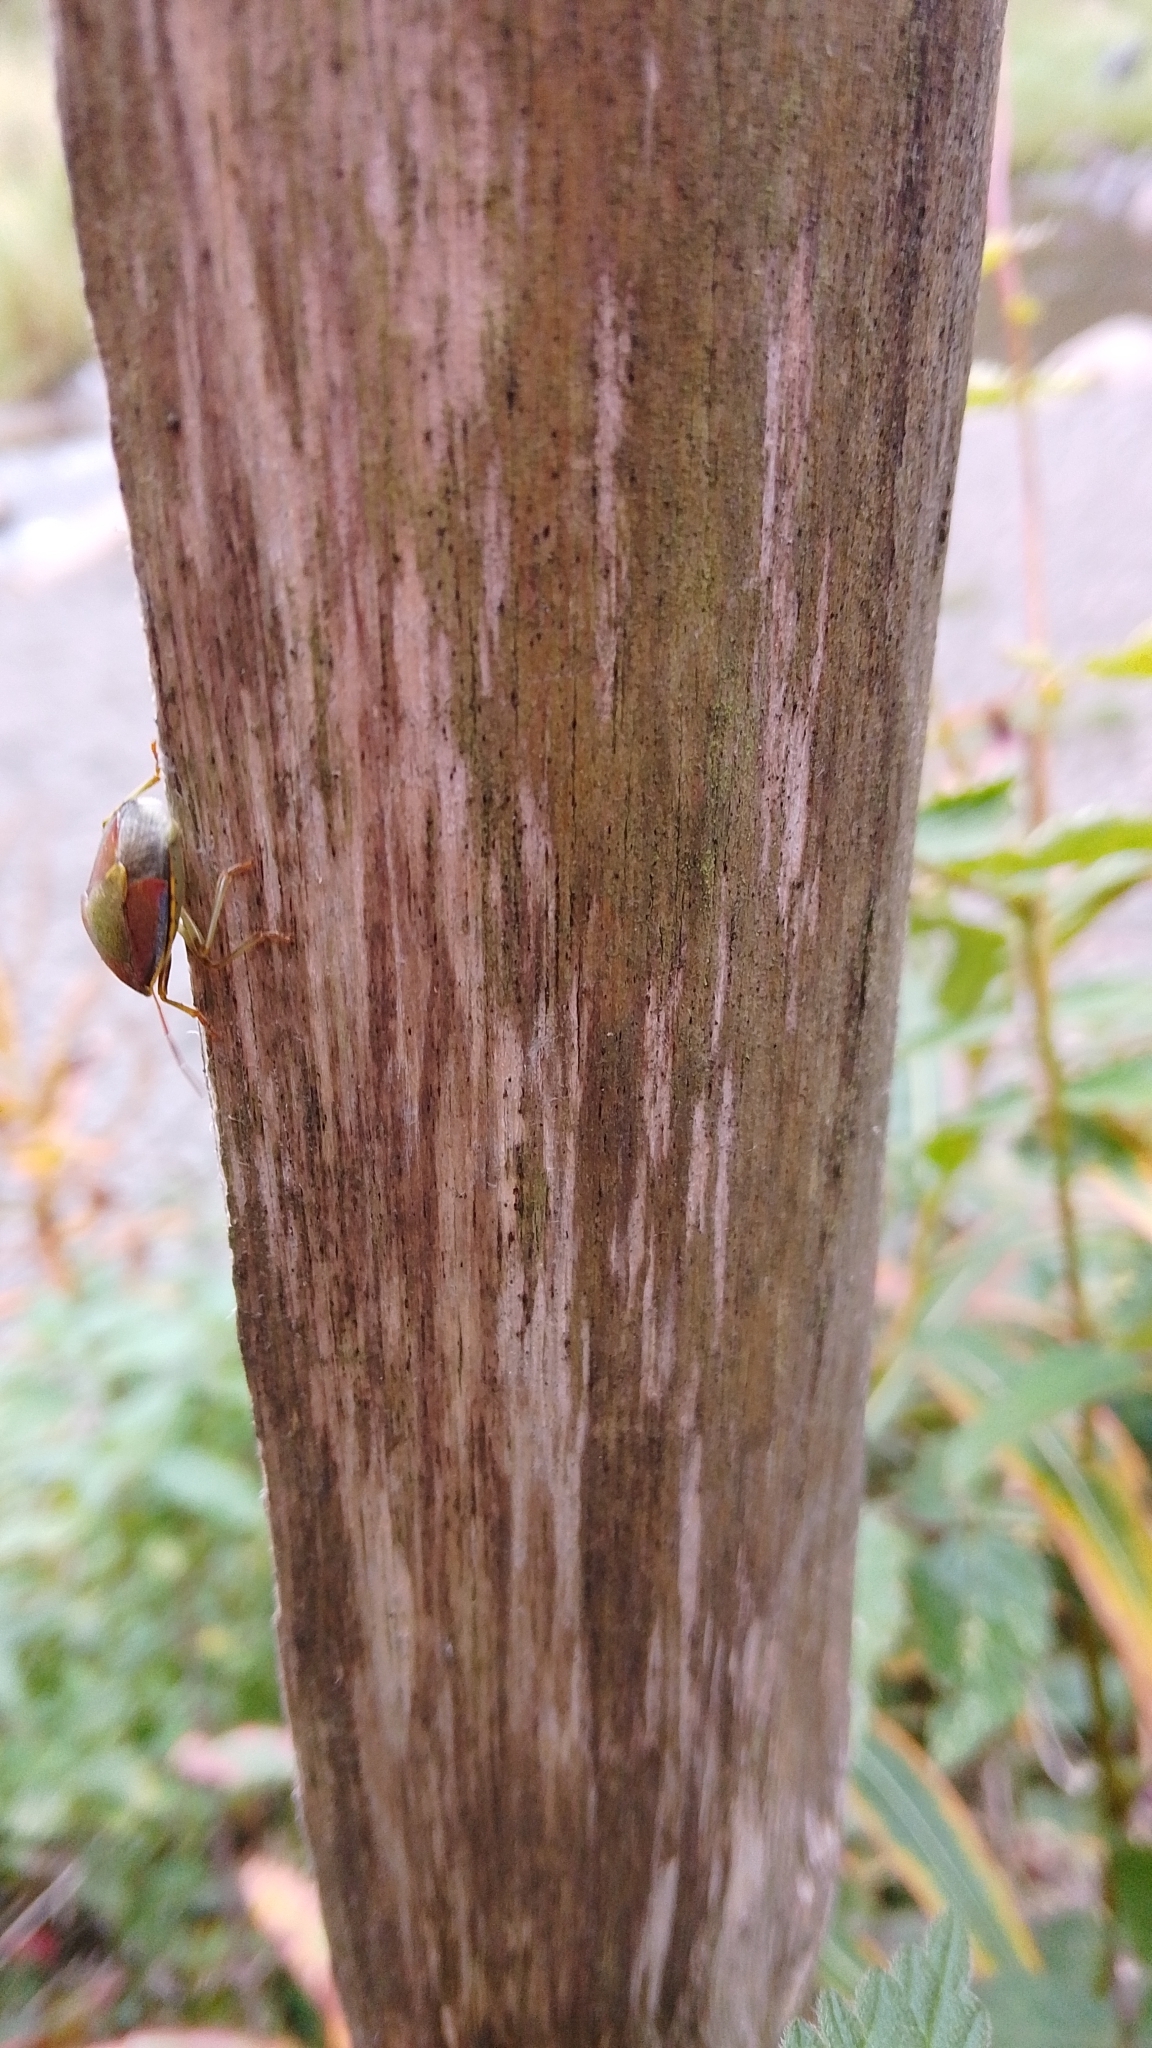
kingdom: Animalia
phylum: Arthropoda
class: Insecta
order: Hemiptera
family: Pentatomidae
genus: Piezodorus
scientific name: Piezodorus lituratus
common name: Stink bug
